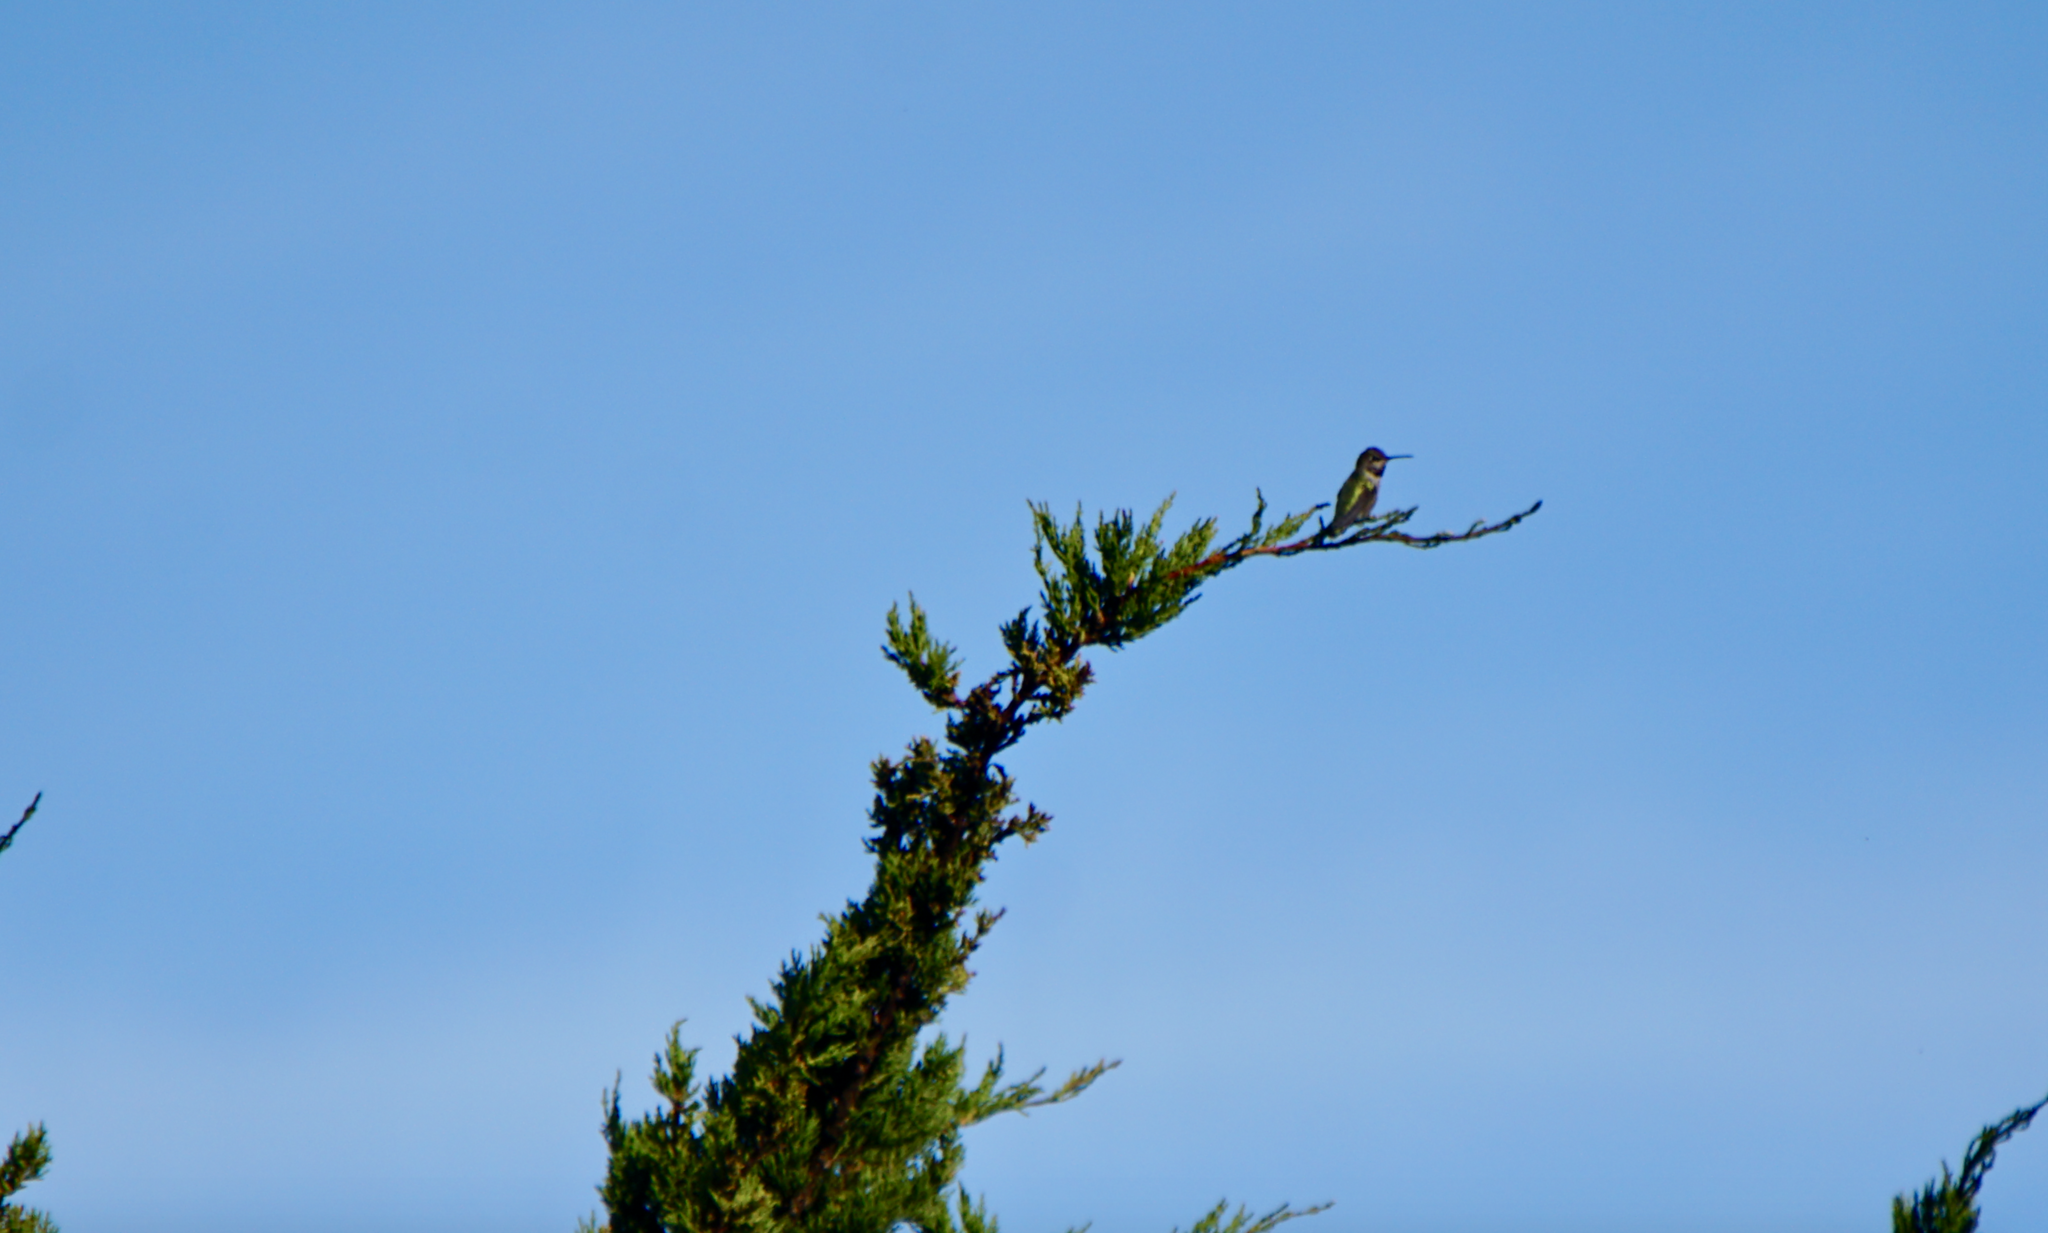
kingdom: Animalia
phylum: Chordata
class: Aves
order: Apodiformes
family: Trochilidae
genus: Calypte
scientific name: Calypte anna
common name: Anna's hummingbird
